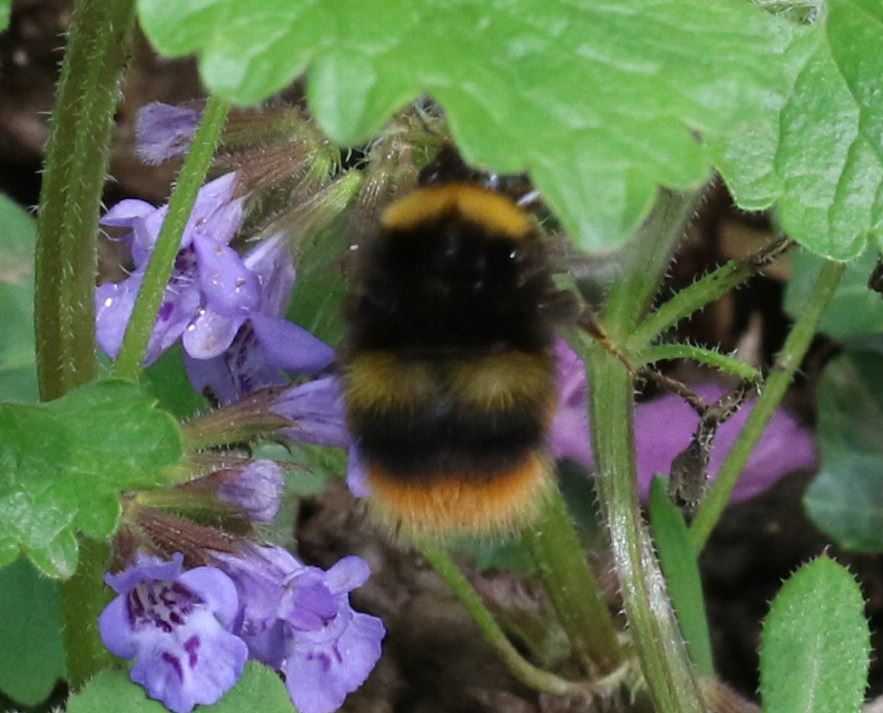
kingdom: Animalia
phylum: Arthropoda
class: Insecta
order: Hymenoptera
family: Apidae
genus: Bombus
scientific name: Bombus pratorum
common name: Early humble-bee
